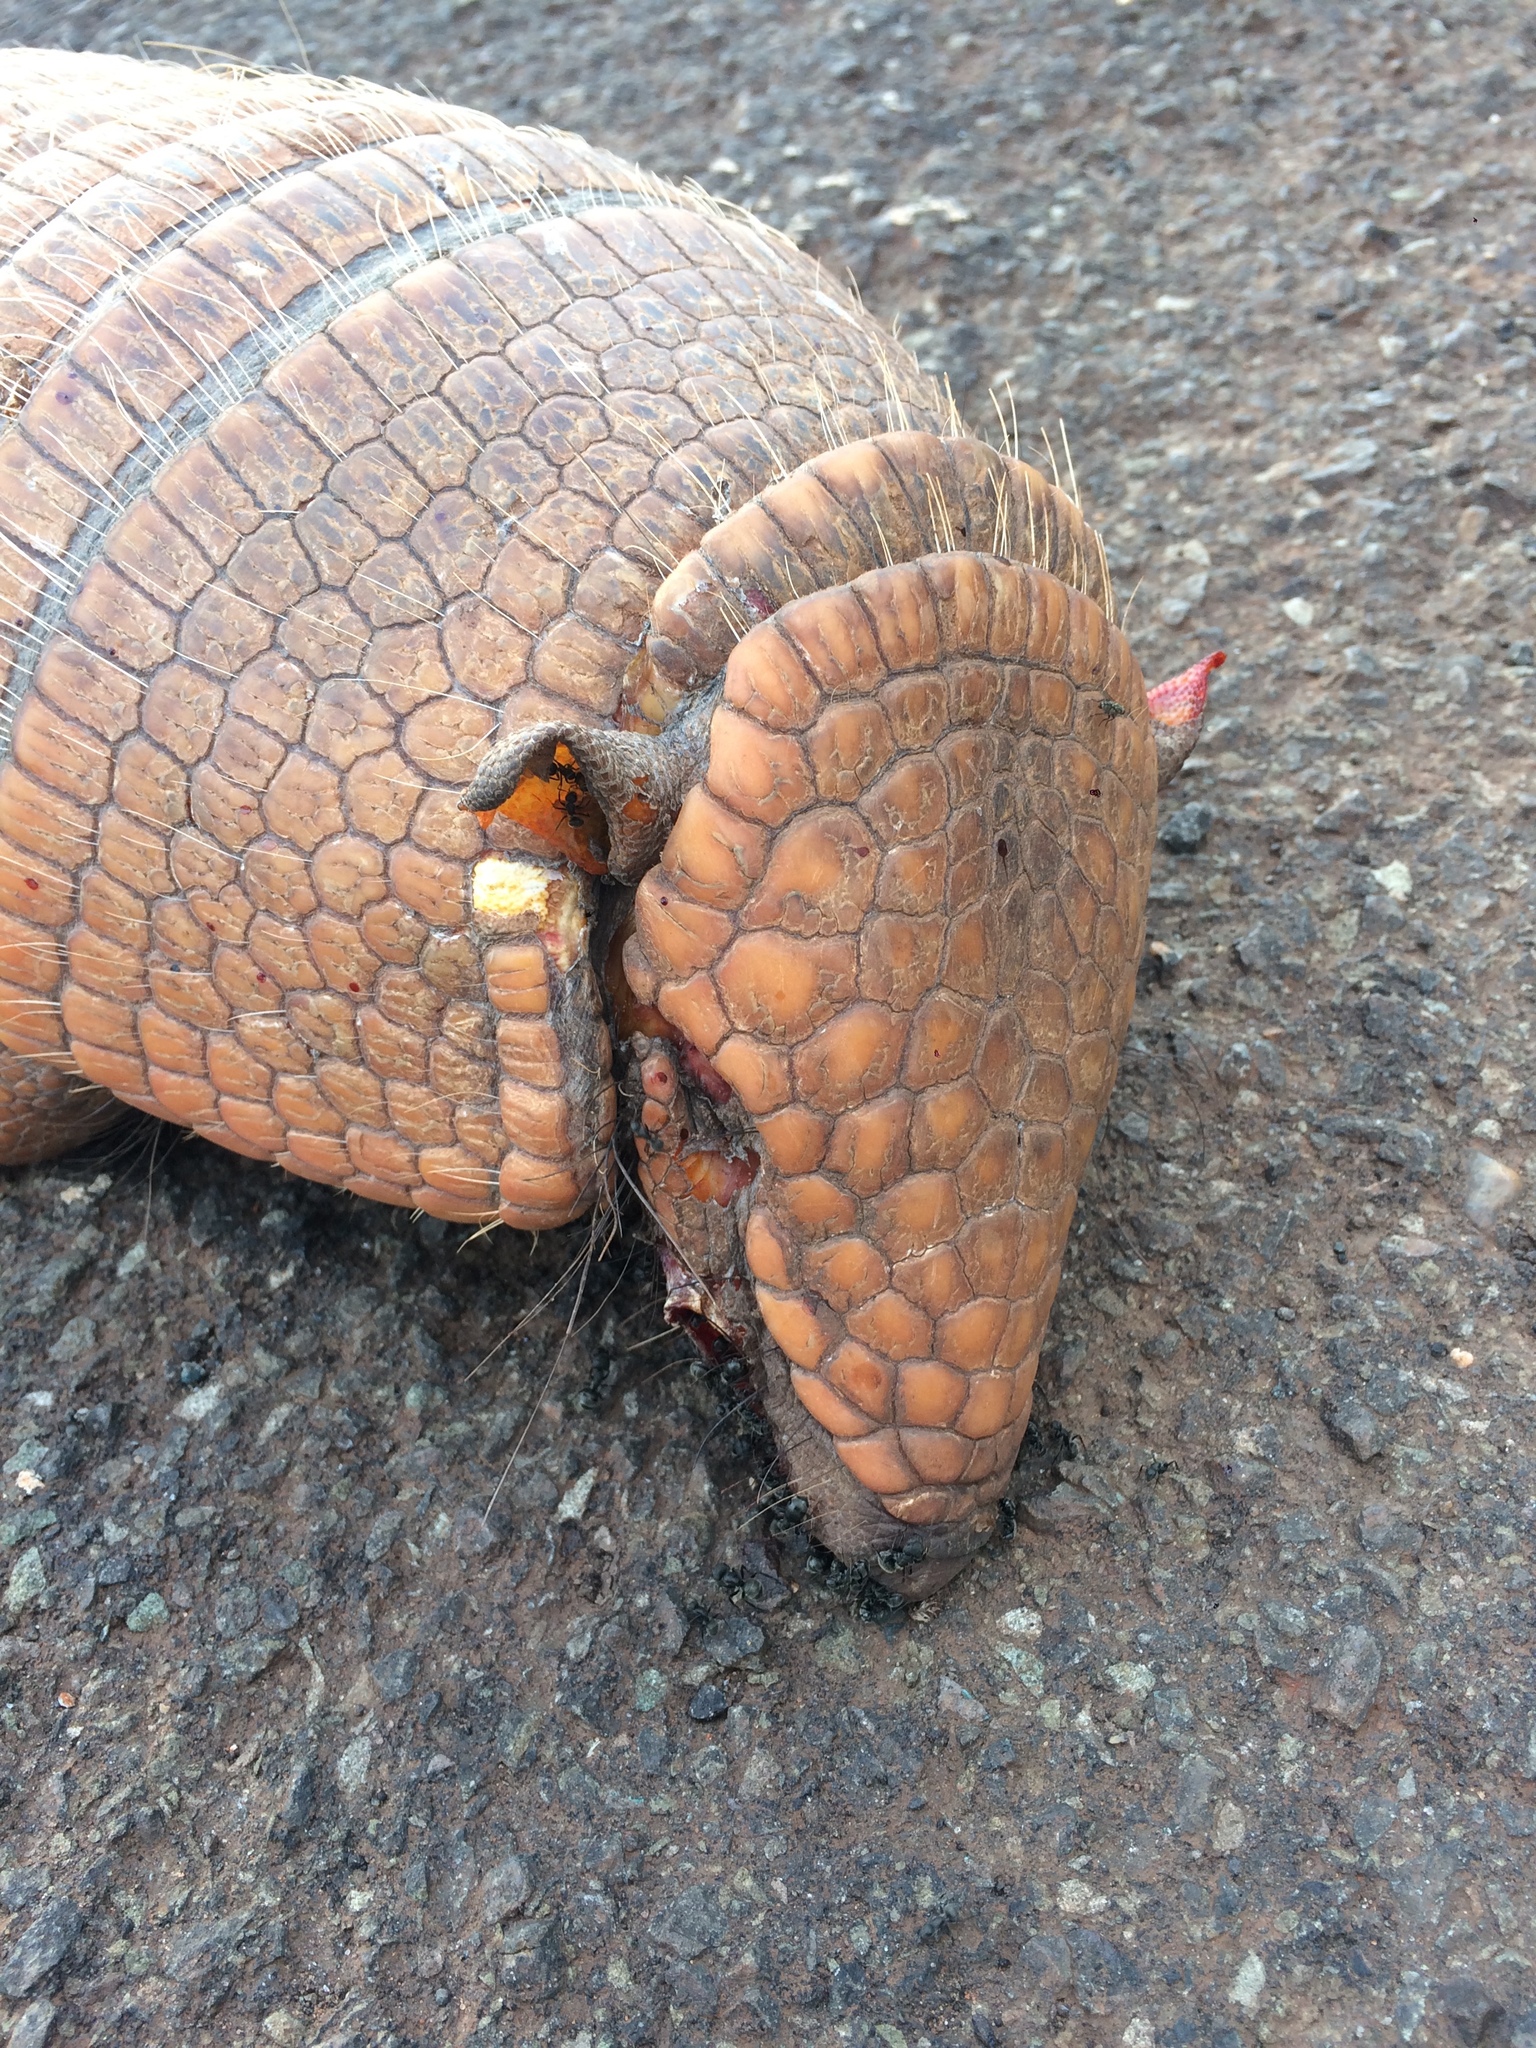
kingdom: Animalia
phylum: Chordata
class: Mammalia
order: Cingulata
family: Dasypodidae
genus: Euphractus
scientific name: Euphractus sexcinctus
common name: Six-banded armadillo
